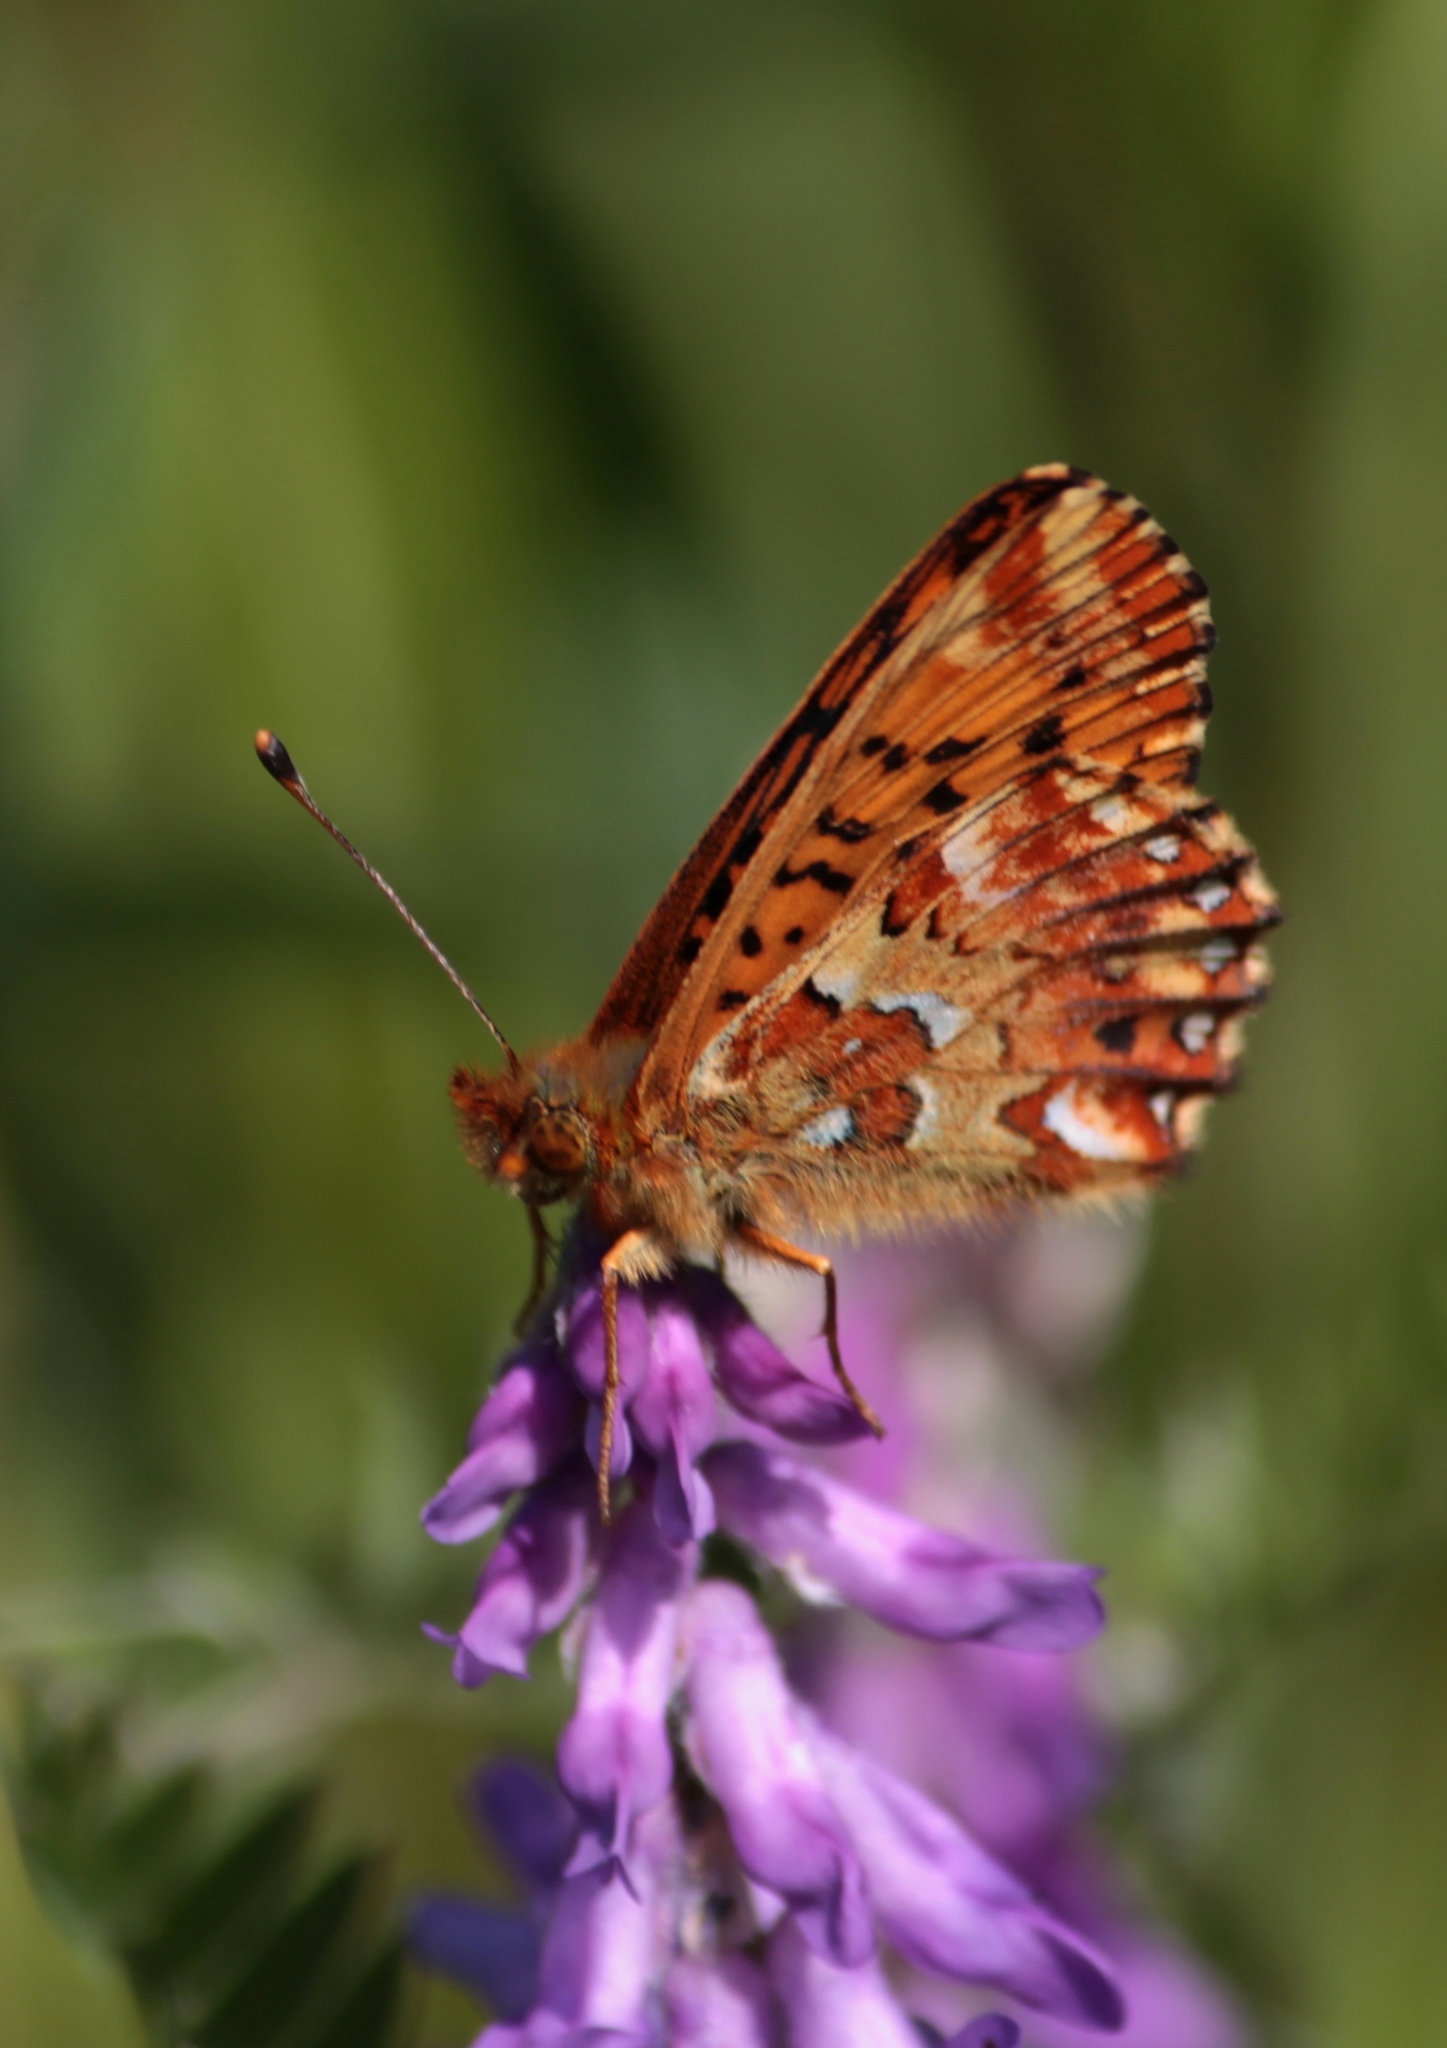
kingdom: Animalia
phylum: Arthropoda
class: Insecta
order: Lepidoptera
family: Nymphalidae
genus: Boloria
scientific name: Boloria aquilonaris
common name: Cranberry fritillary
